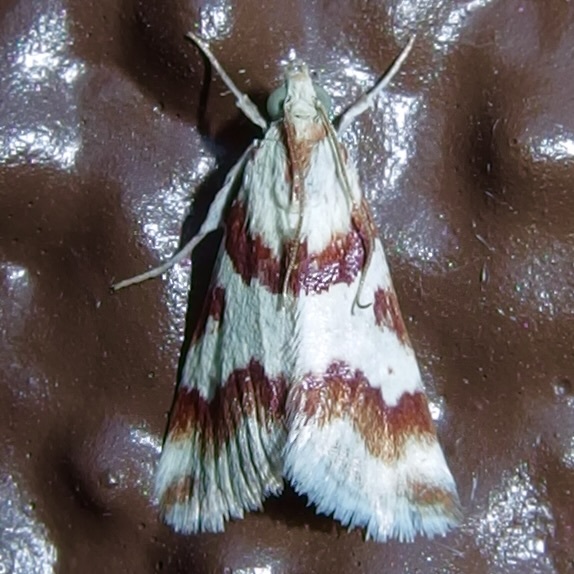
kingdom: Animalia
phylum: Arthropoda
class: Insecta
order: Lepidoptera
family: Crambidae
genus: Noctuelia
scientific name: Noctuelia Mimoschinia rufofascialis
